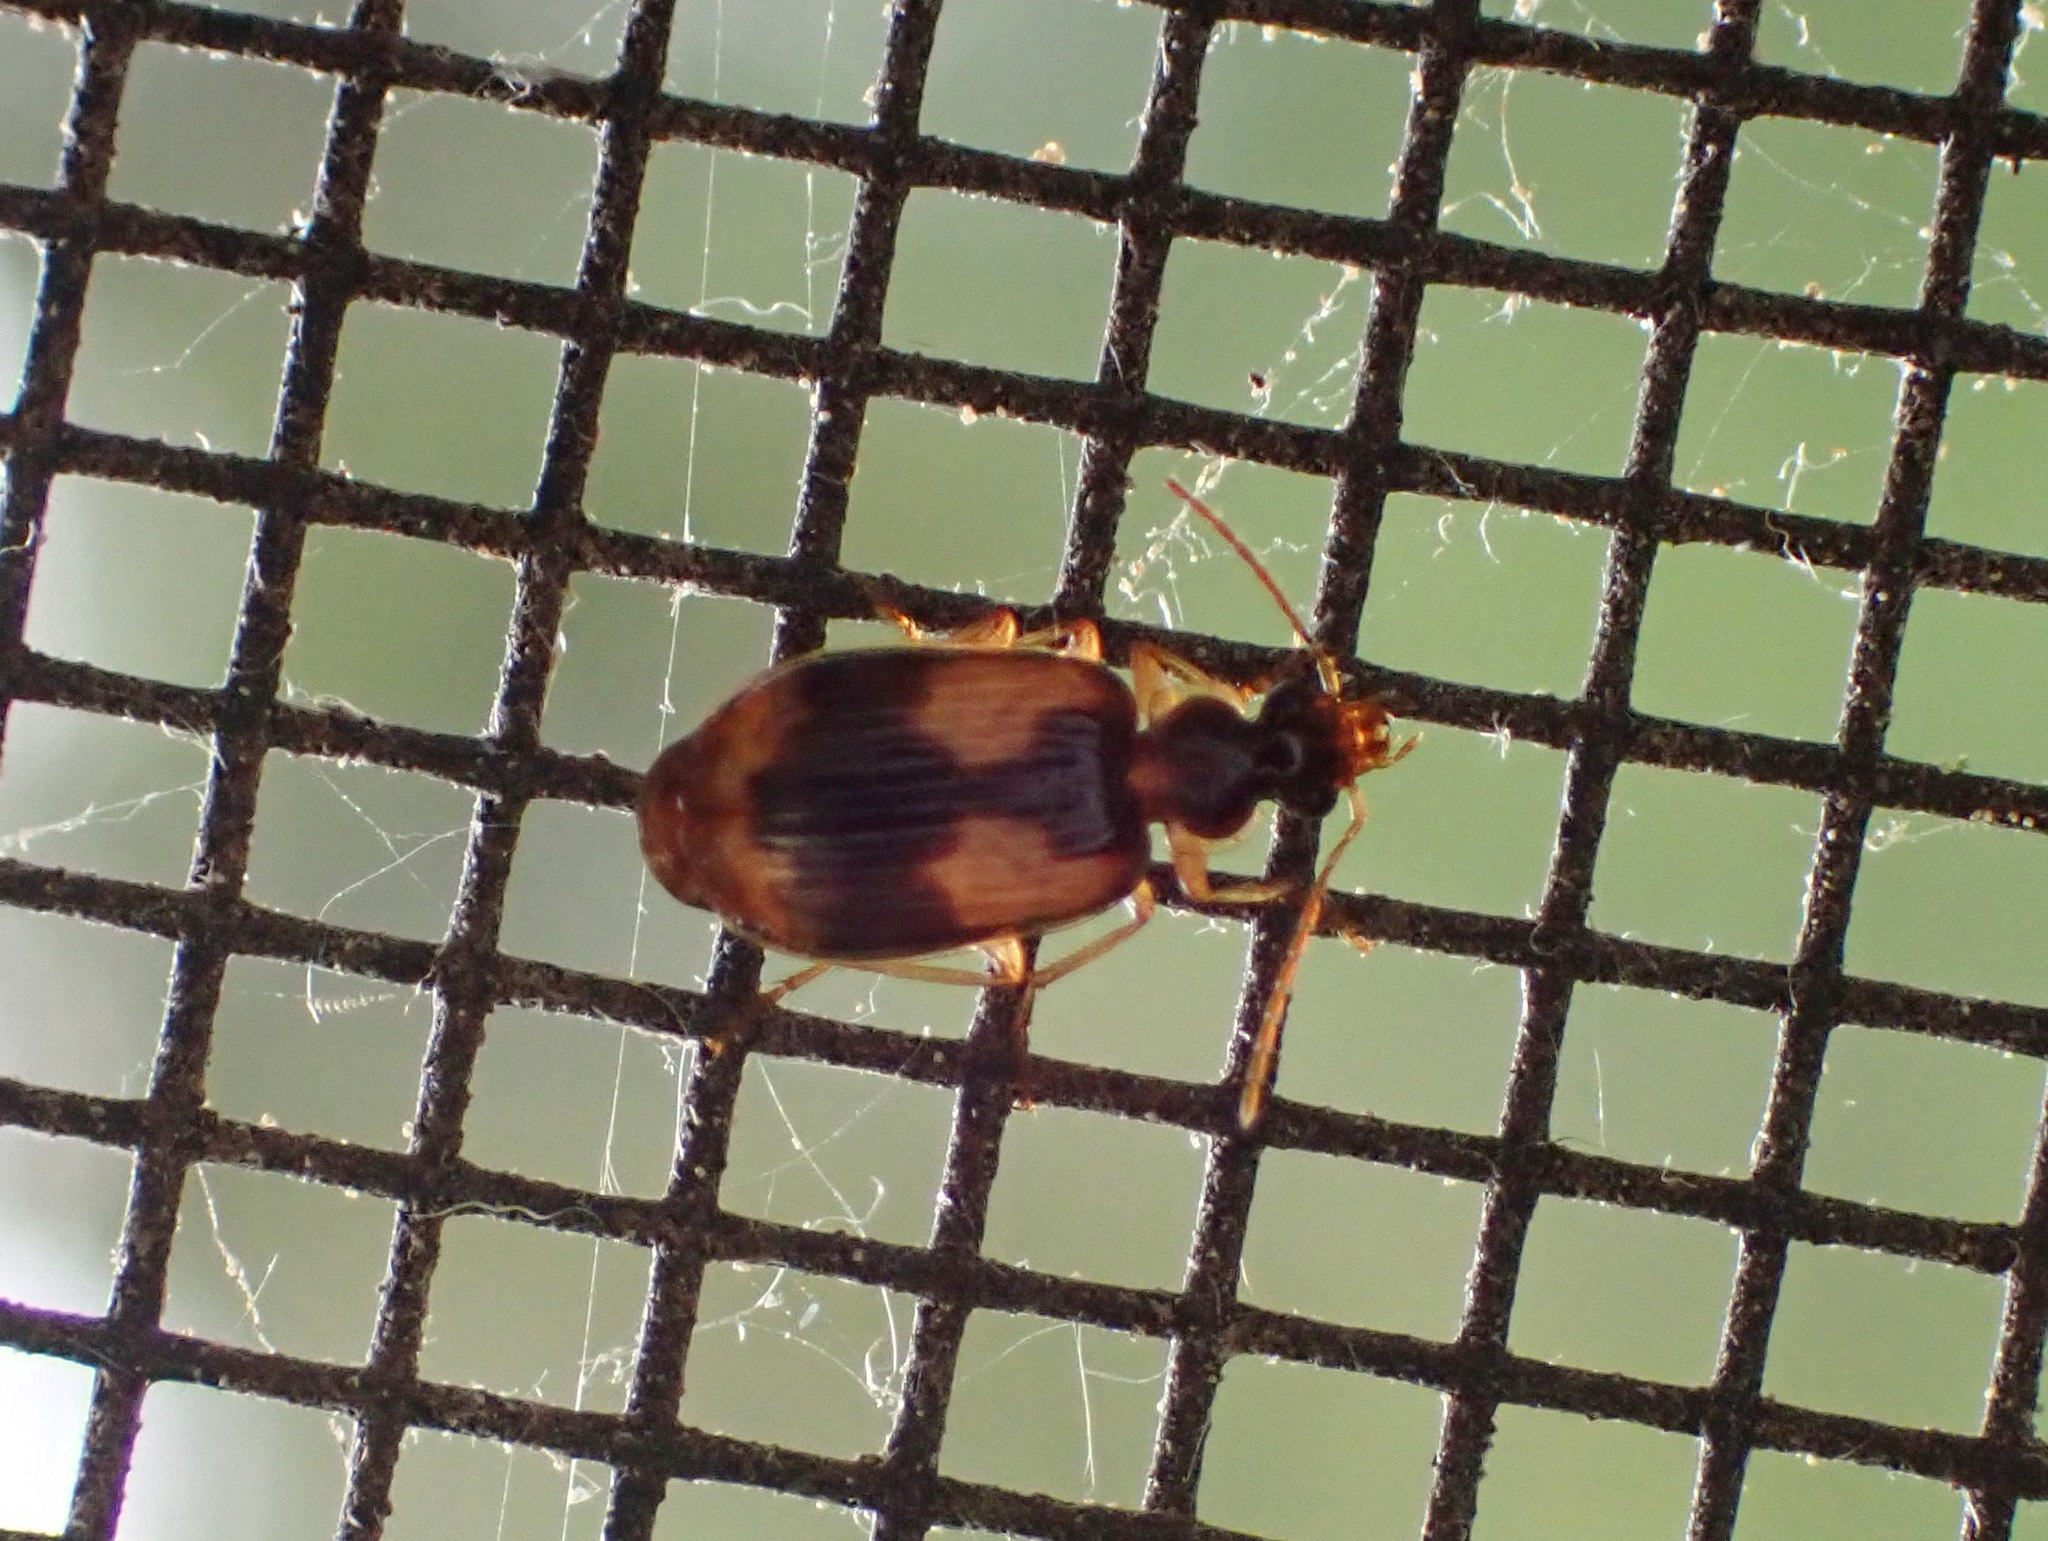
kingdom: Animalia
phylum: Arthropoda
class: Insecta
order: Coleoptera
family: Carabidae
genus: Lebia
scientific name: Lebia fuscata
